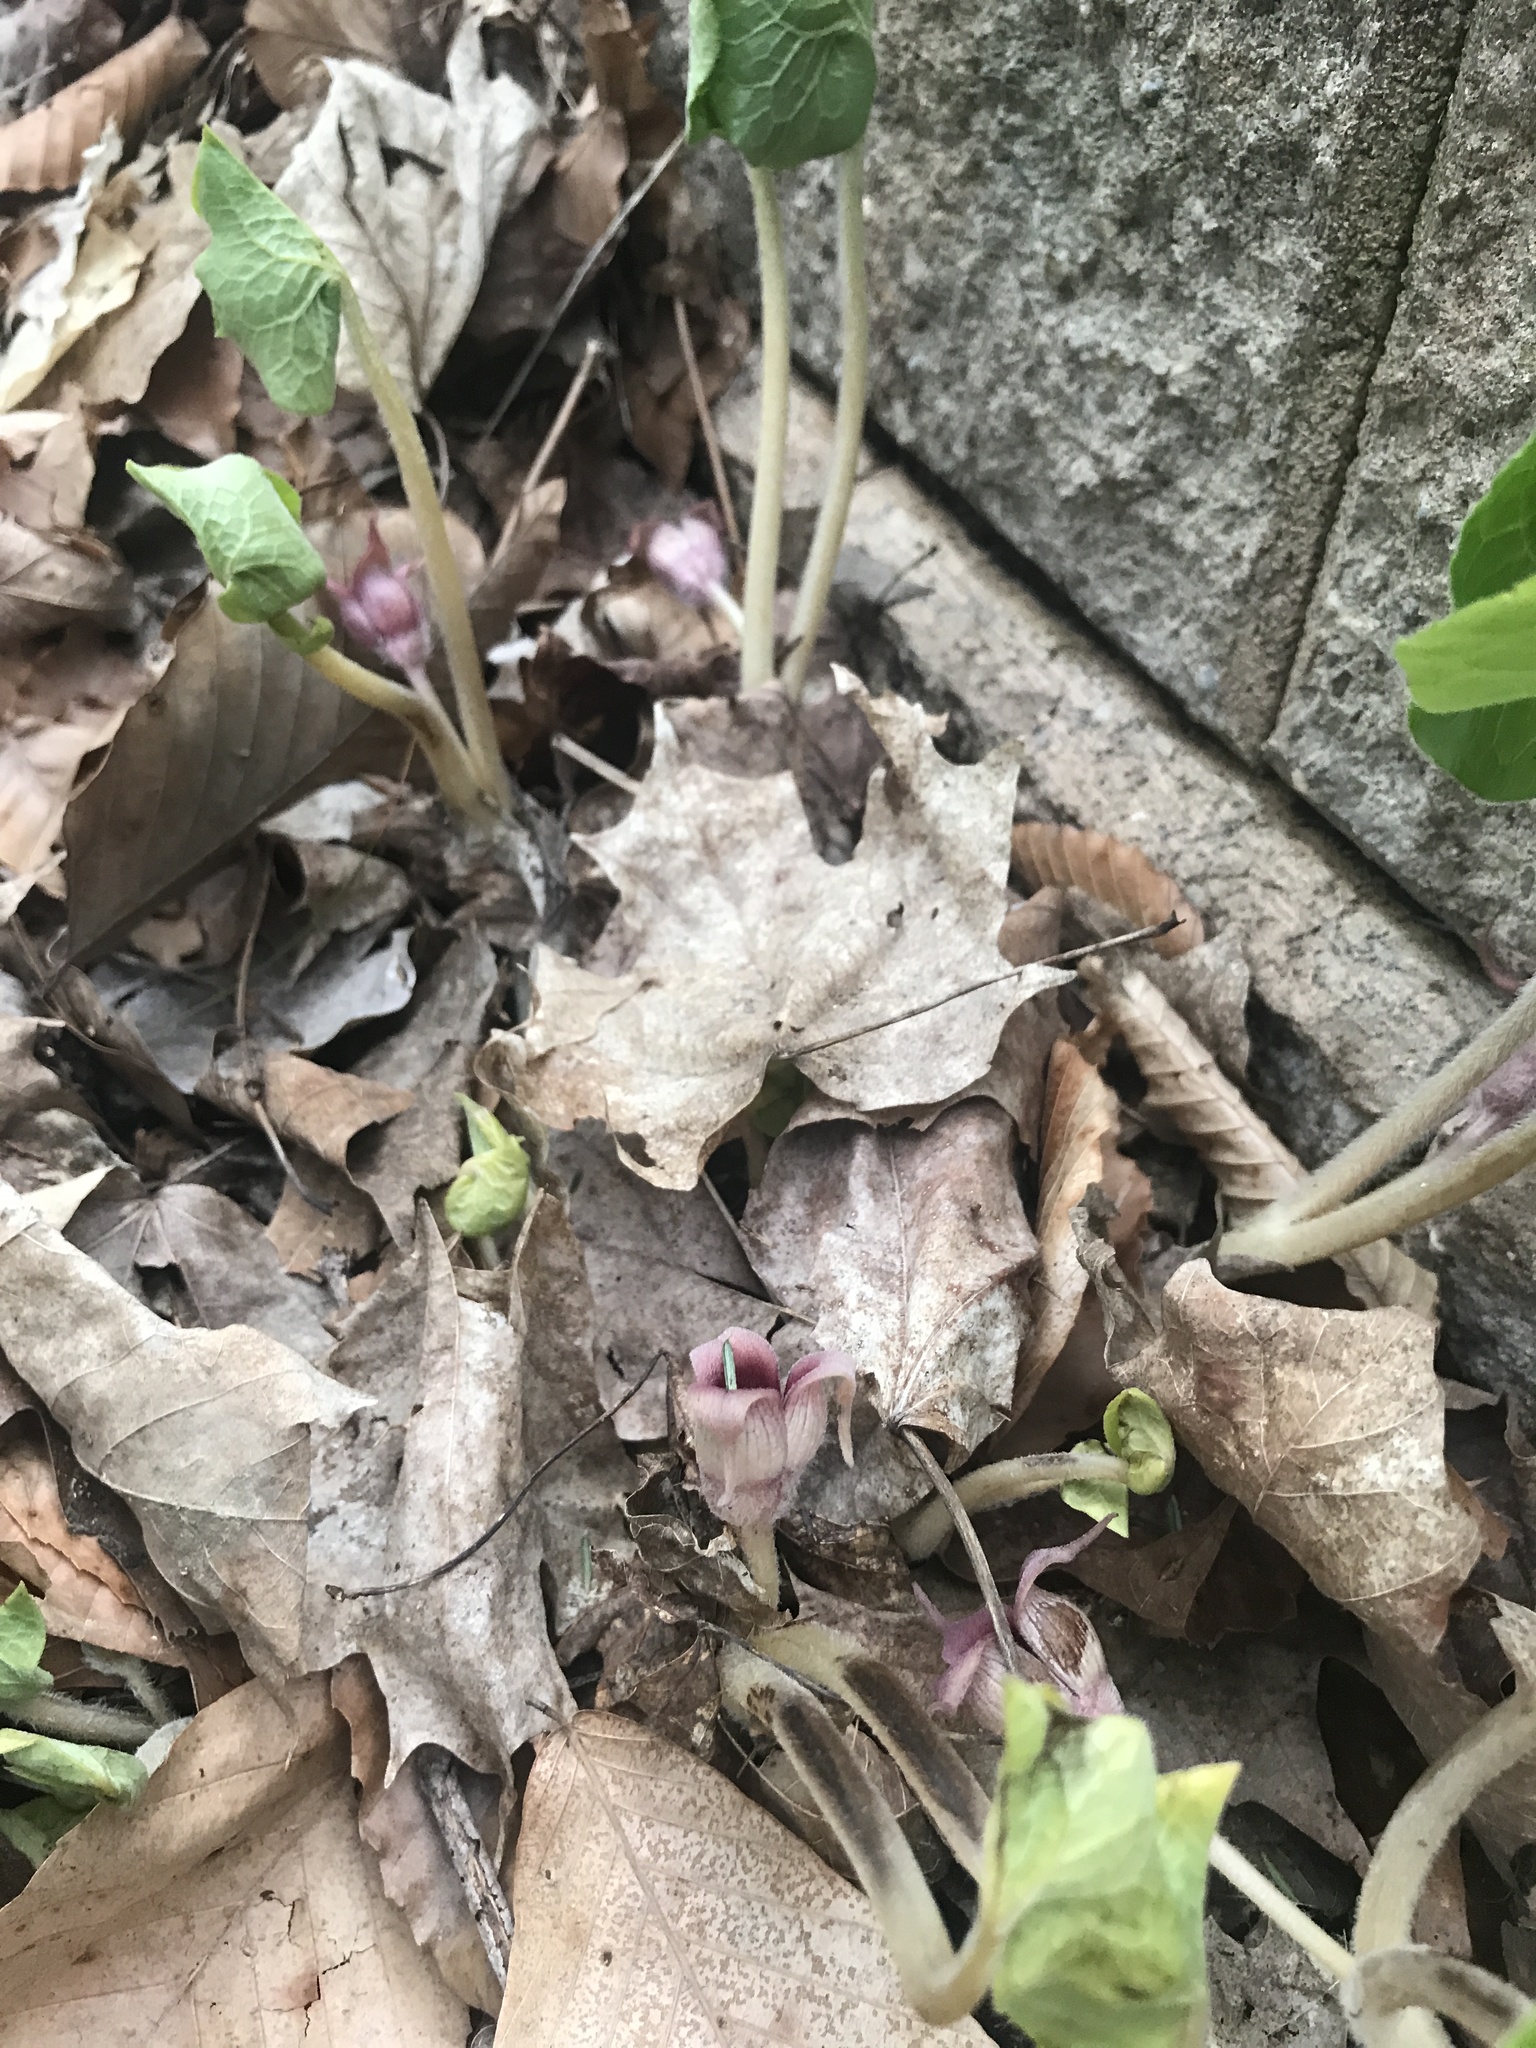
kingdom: Plantae
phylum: Tracheophyta
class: Magnoliopsida
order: Piperales
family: Aristolochiaceae
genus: Asarum
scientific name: Asarum canadense
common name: Wild ginger
